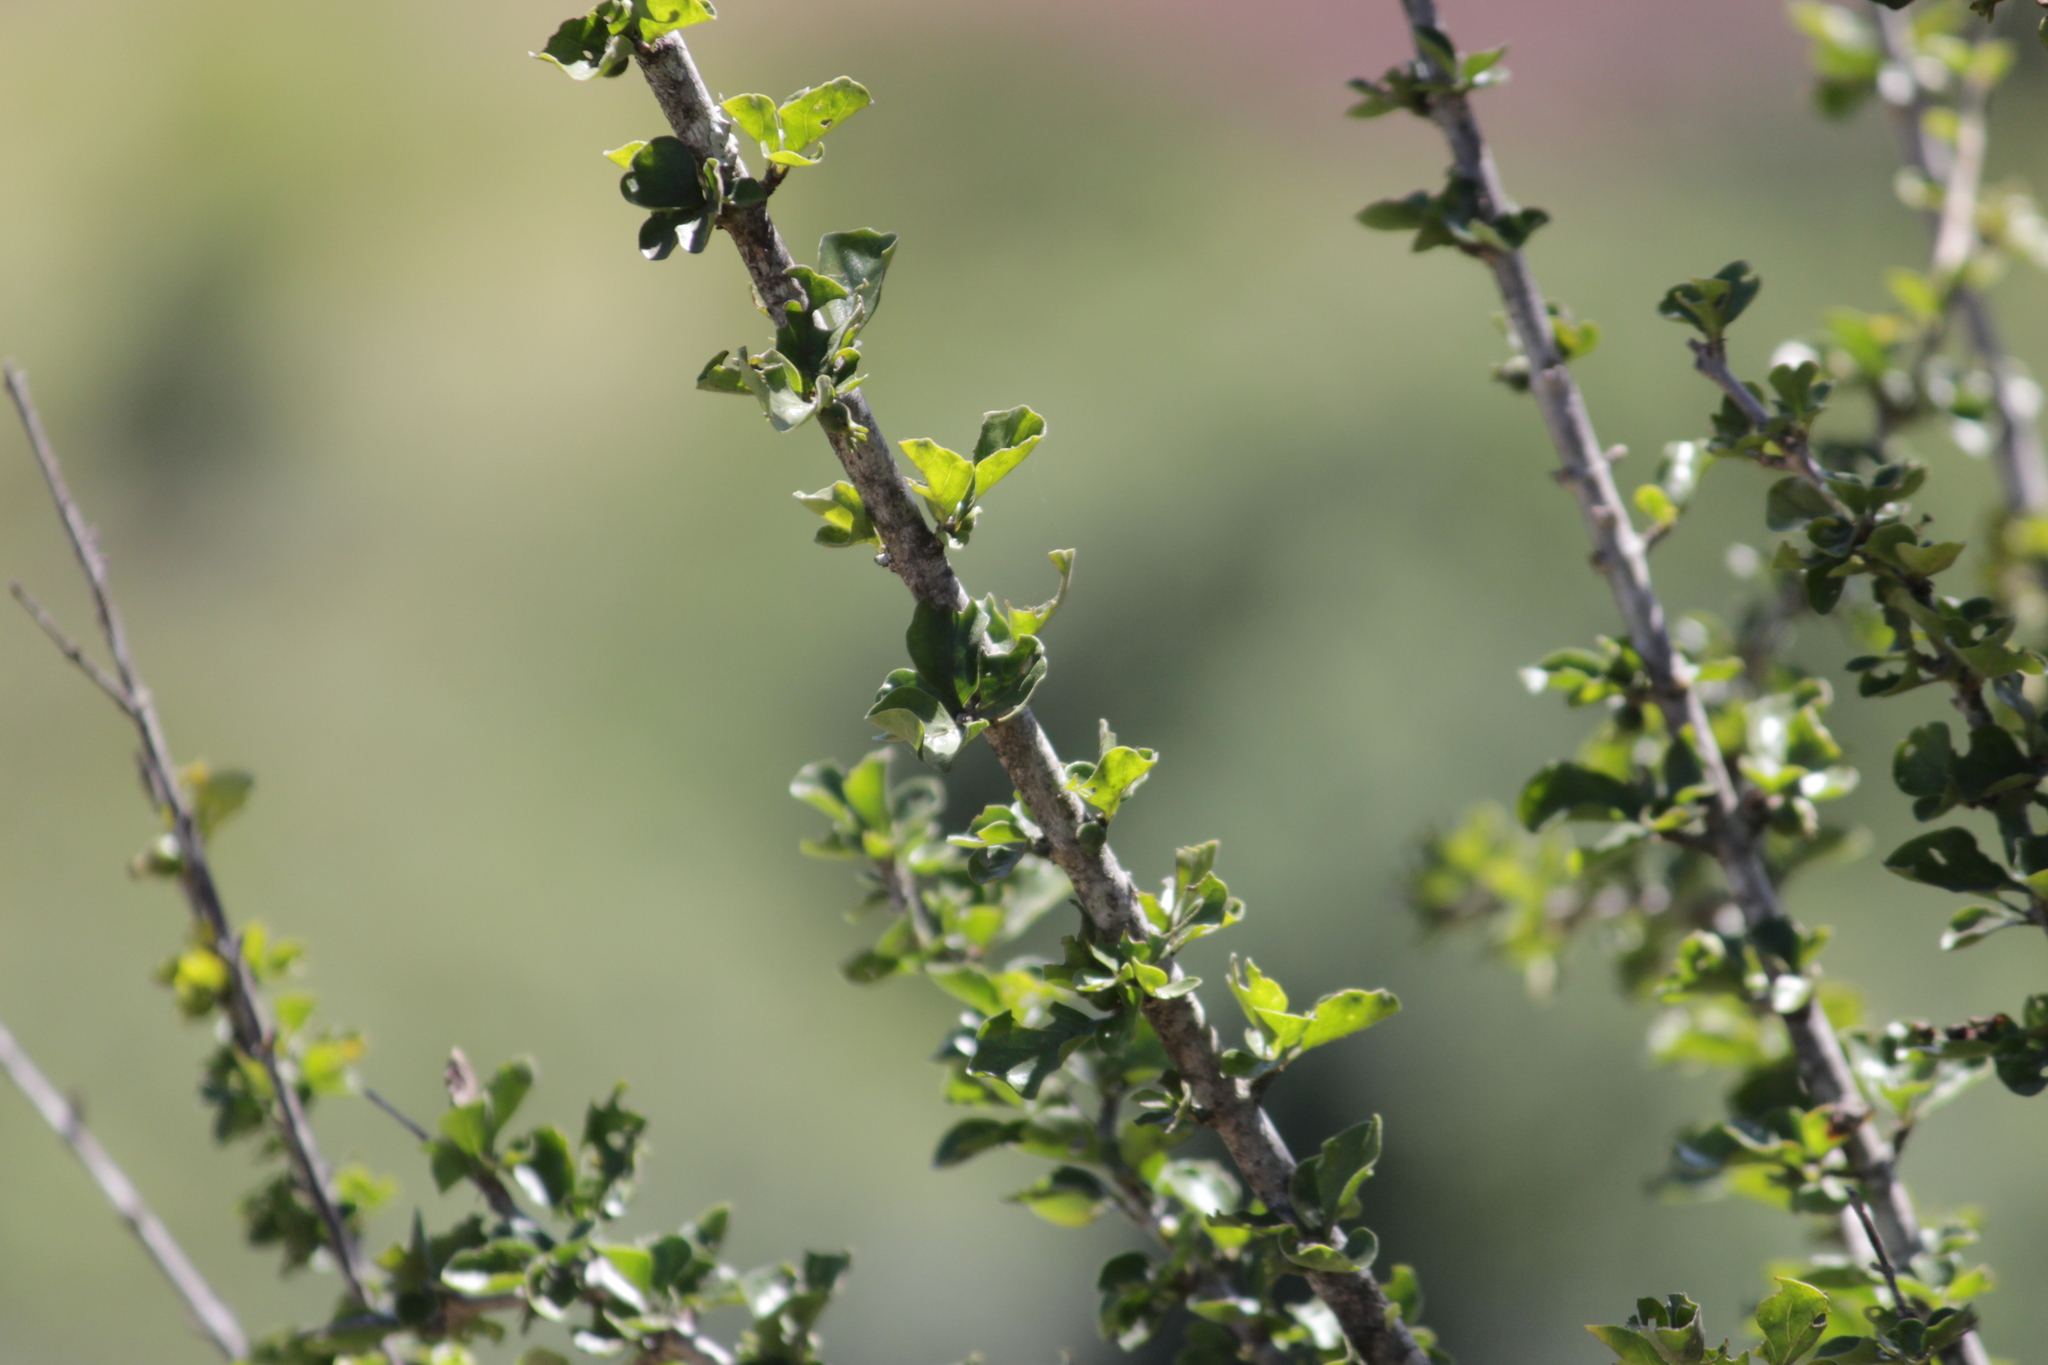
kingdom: Plantae
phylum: Tracheophyta
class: Magnoliopsida
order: Gentianales
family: Rubiaceae
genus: Coddia
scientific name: Coddia rudis
